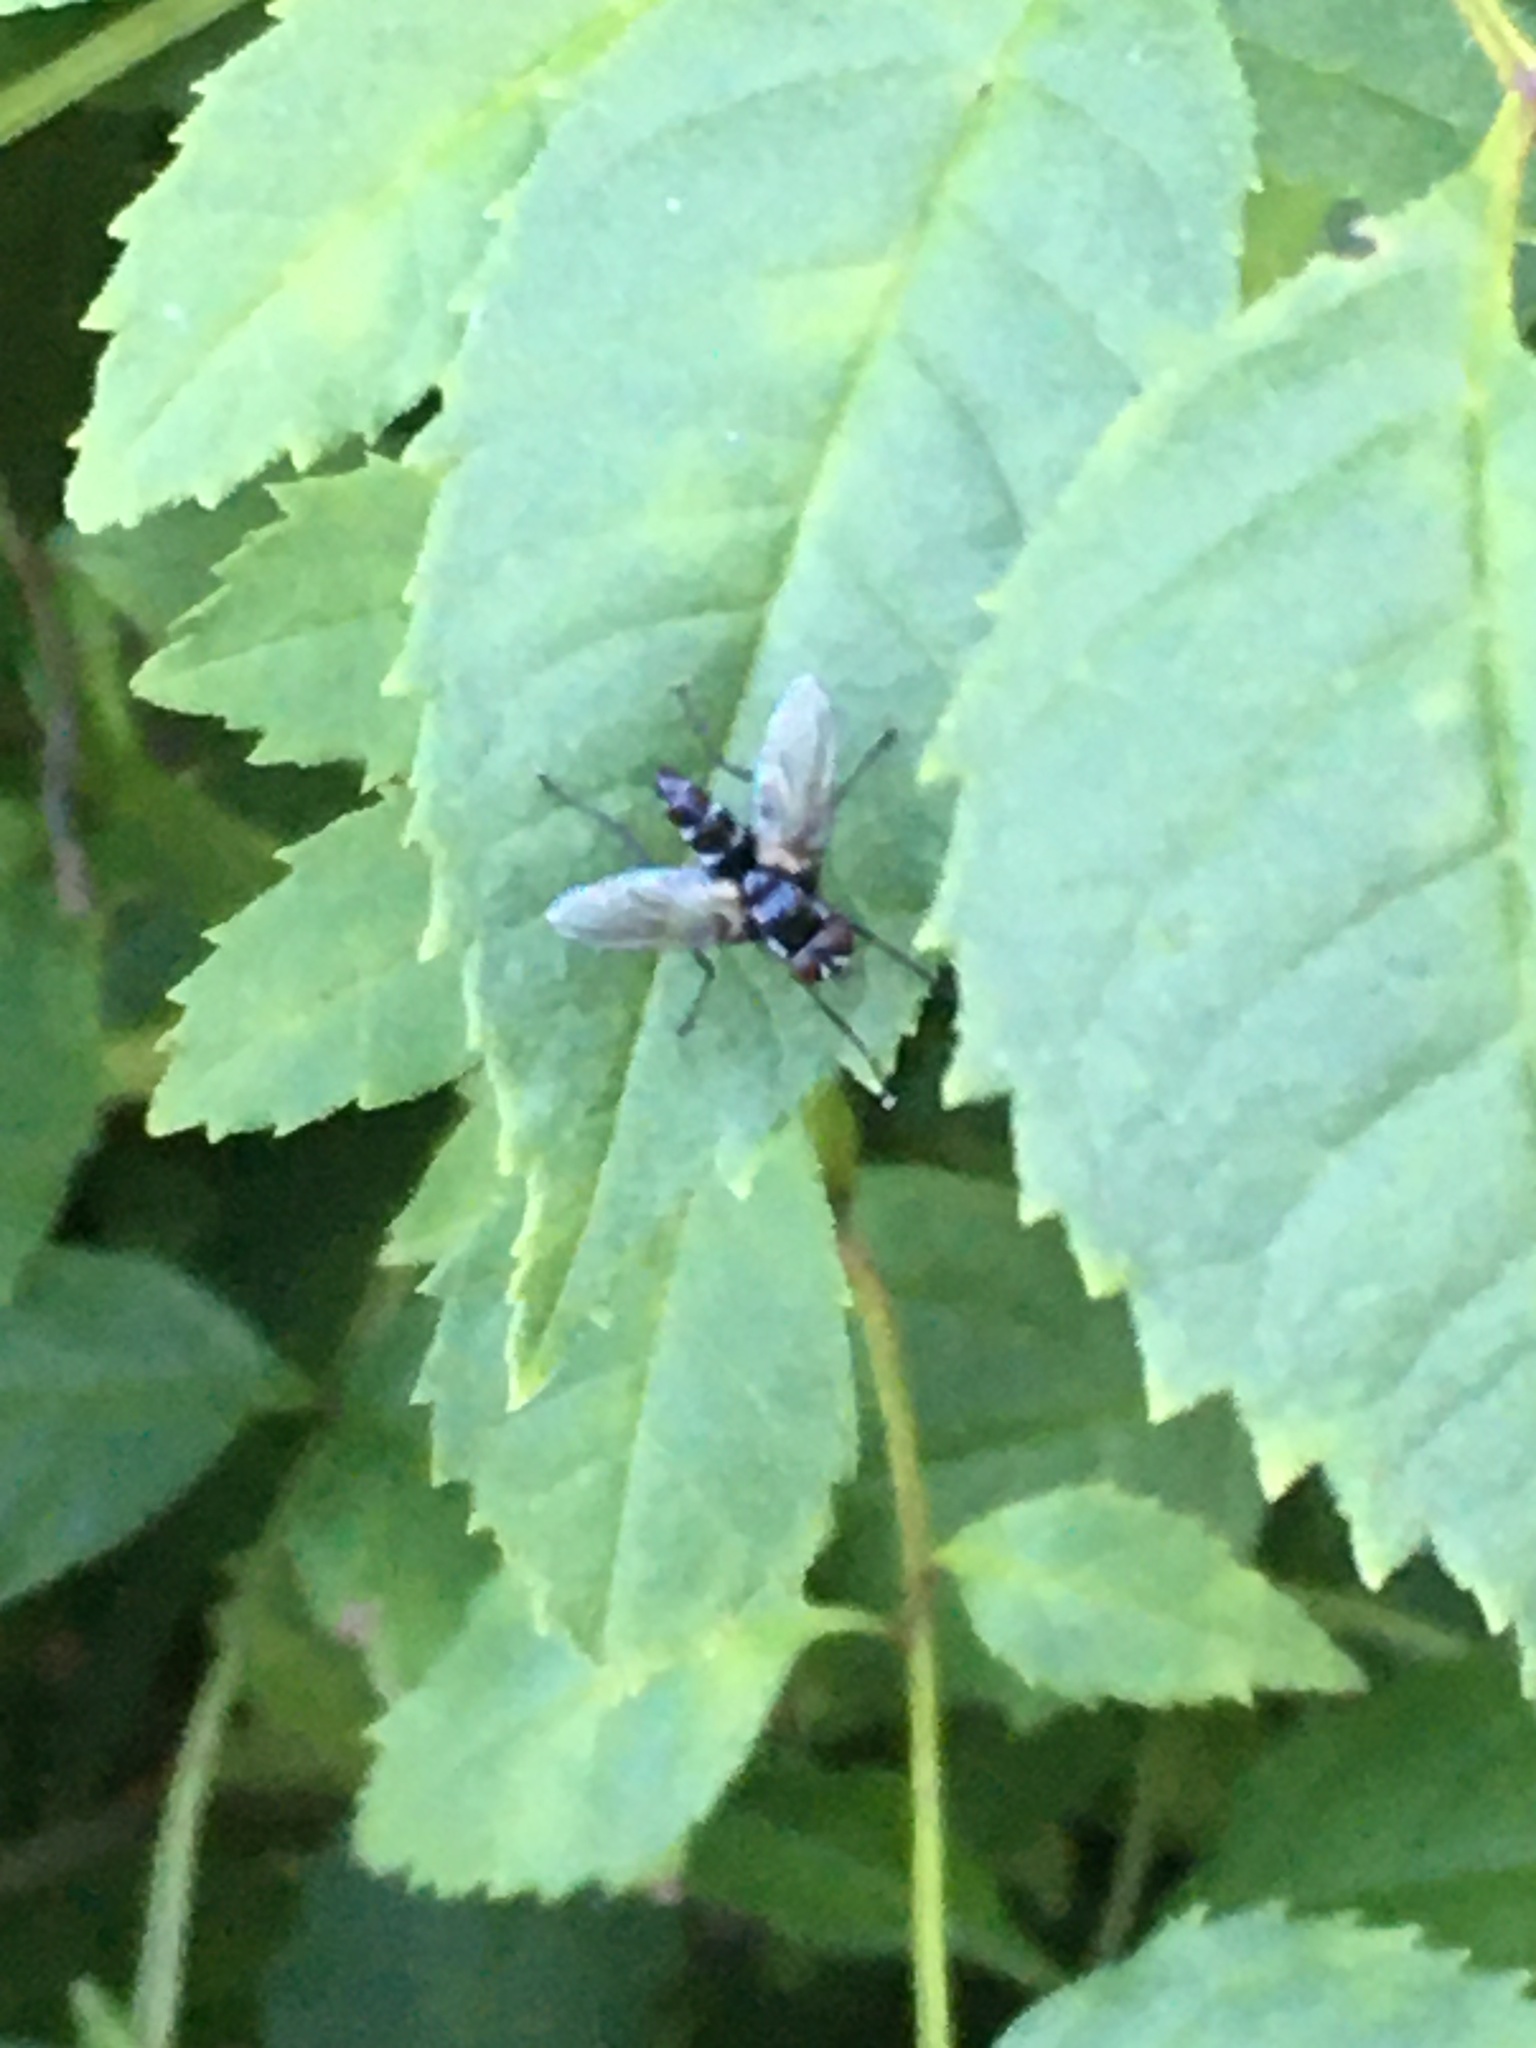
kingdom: Animalia
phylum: Arthropoda
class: Insecta
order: Diptera
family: Tachinidae
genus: Gastrolepta
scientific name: Gastrolepta anthracina
